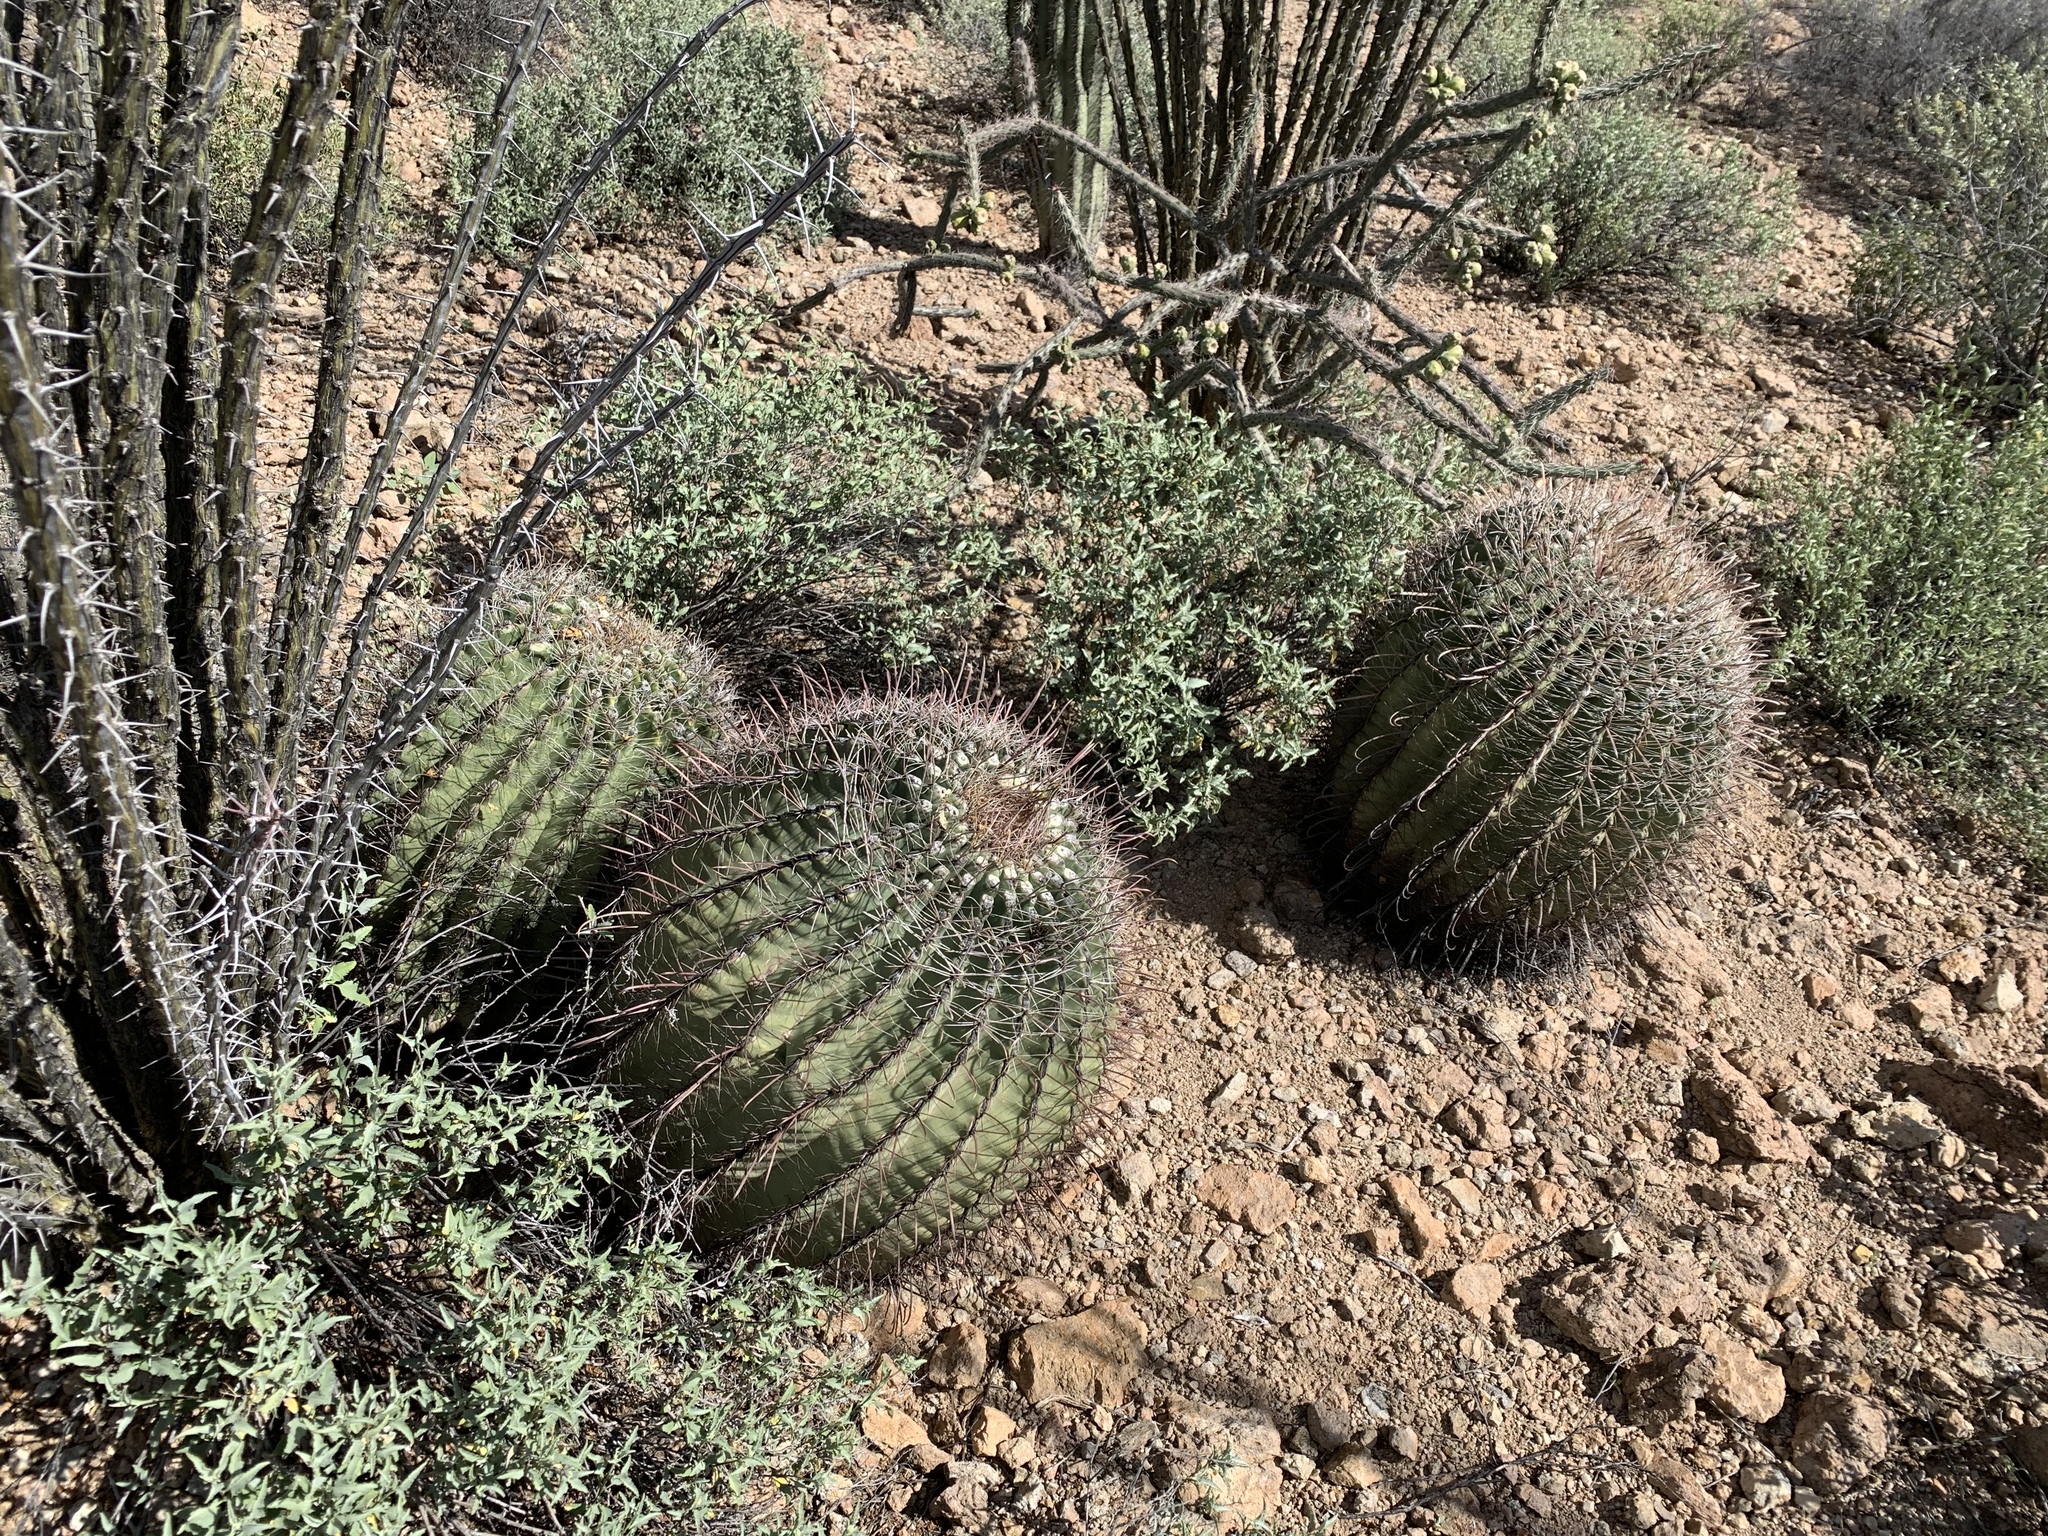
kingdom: Plantae
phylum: Tracheophyta
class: Magnoliopsida
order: Caryophyllales
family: Cactaceae
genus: Ferocactus
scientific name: Ferocactus wislizeni
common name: Candy barrel cactus
